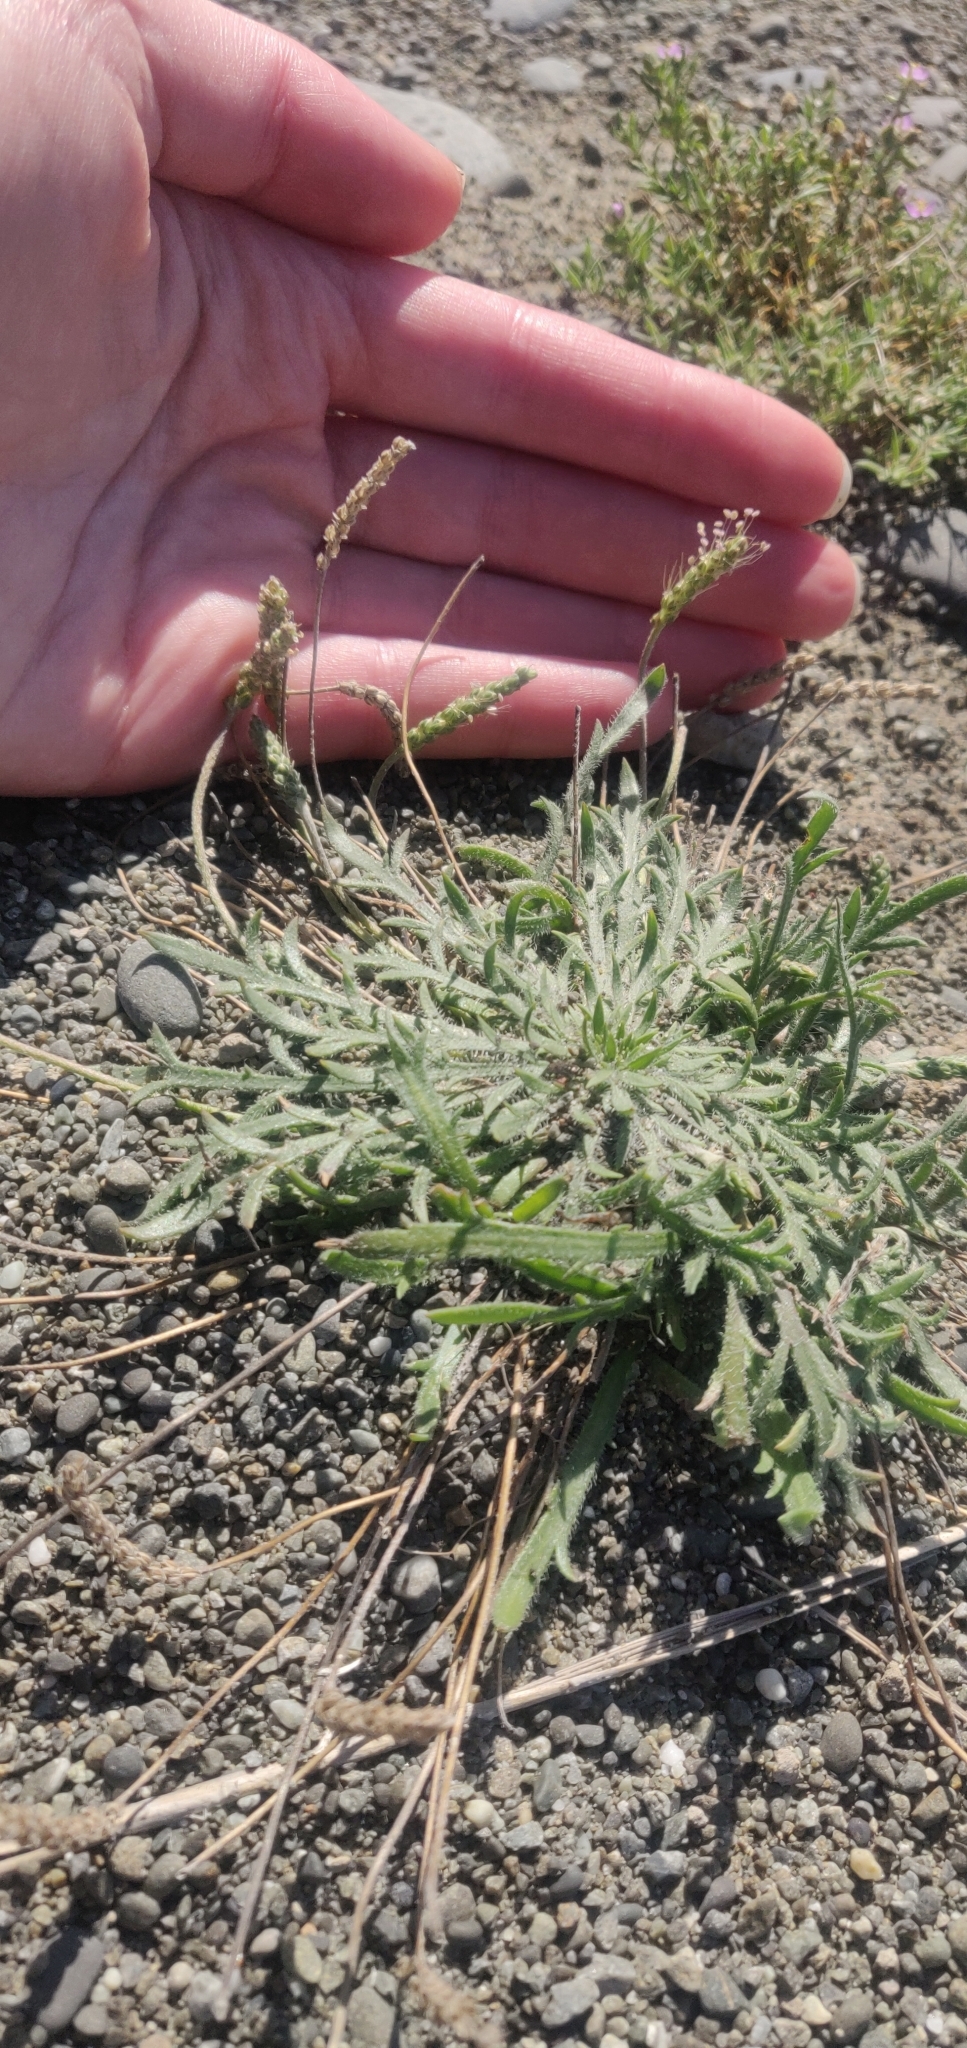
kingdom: Plantae
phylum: Tracheophyta
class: Magnoliopsida
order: Lamiales
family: Plantaginaceae
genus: Plantago
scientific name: Plantago coronopus
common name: Buck's-horn plantain
